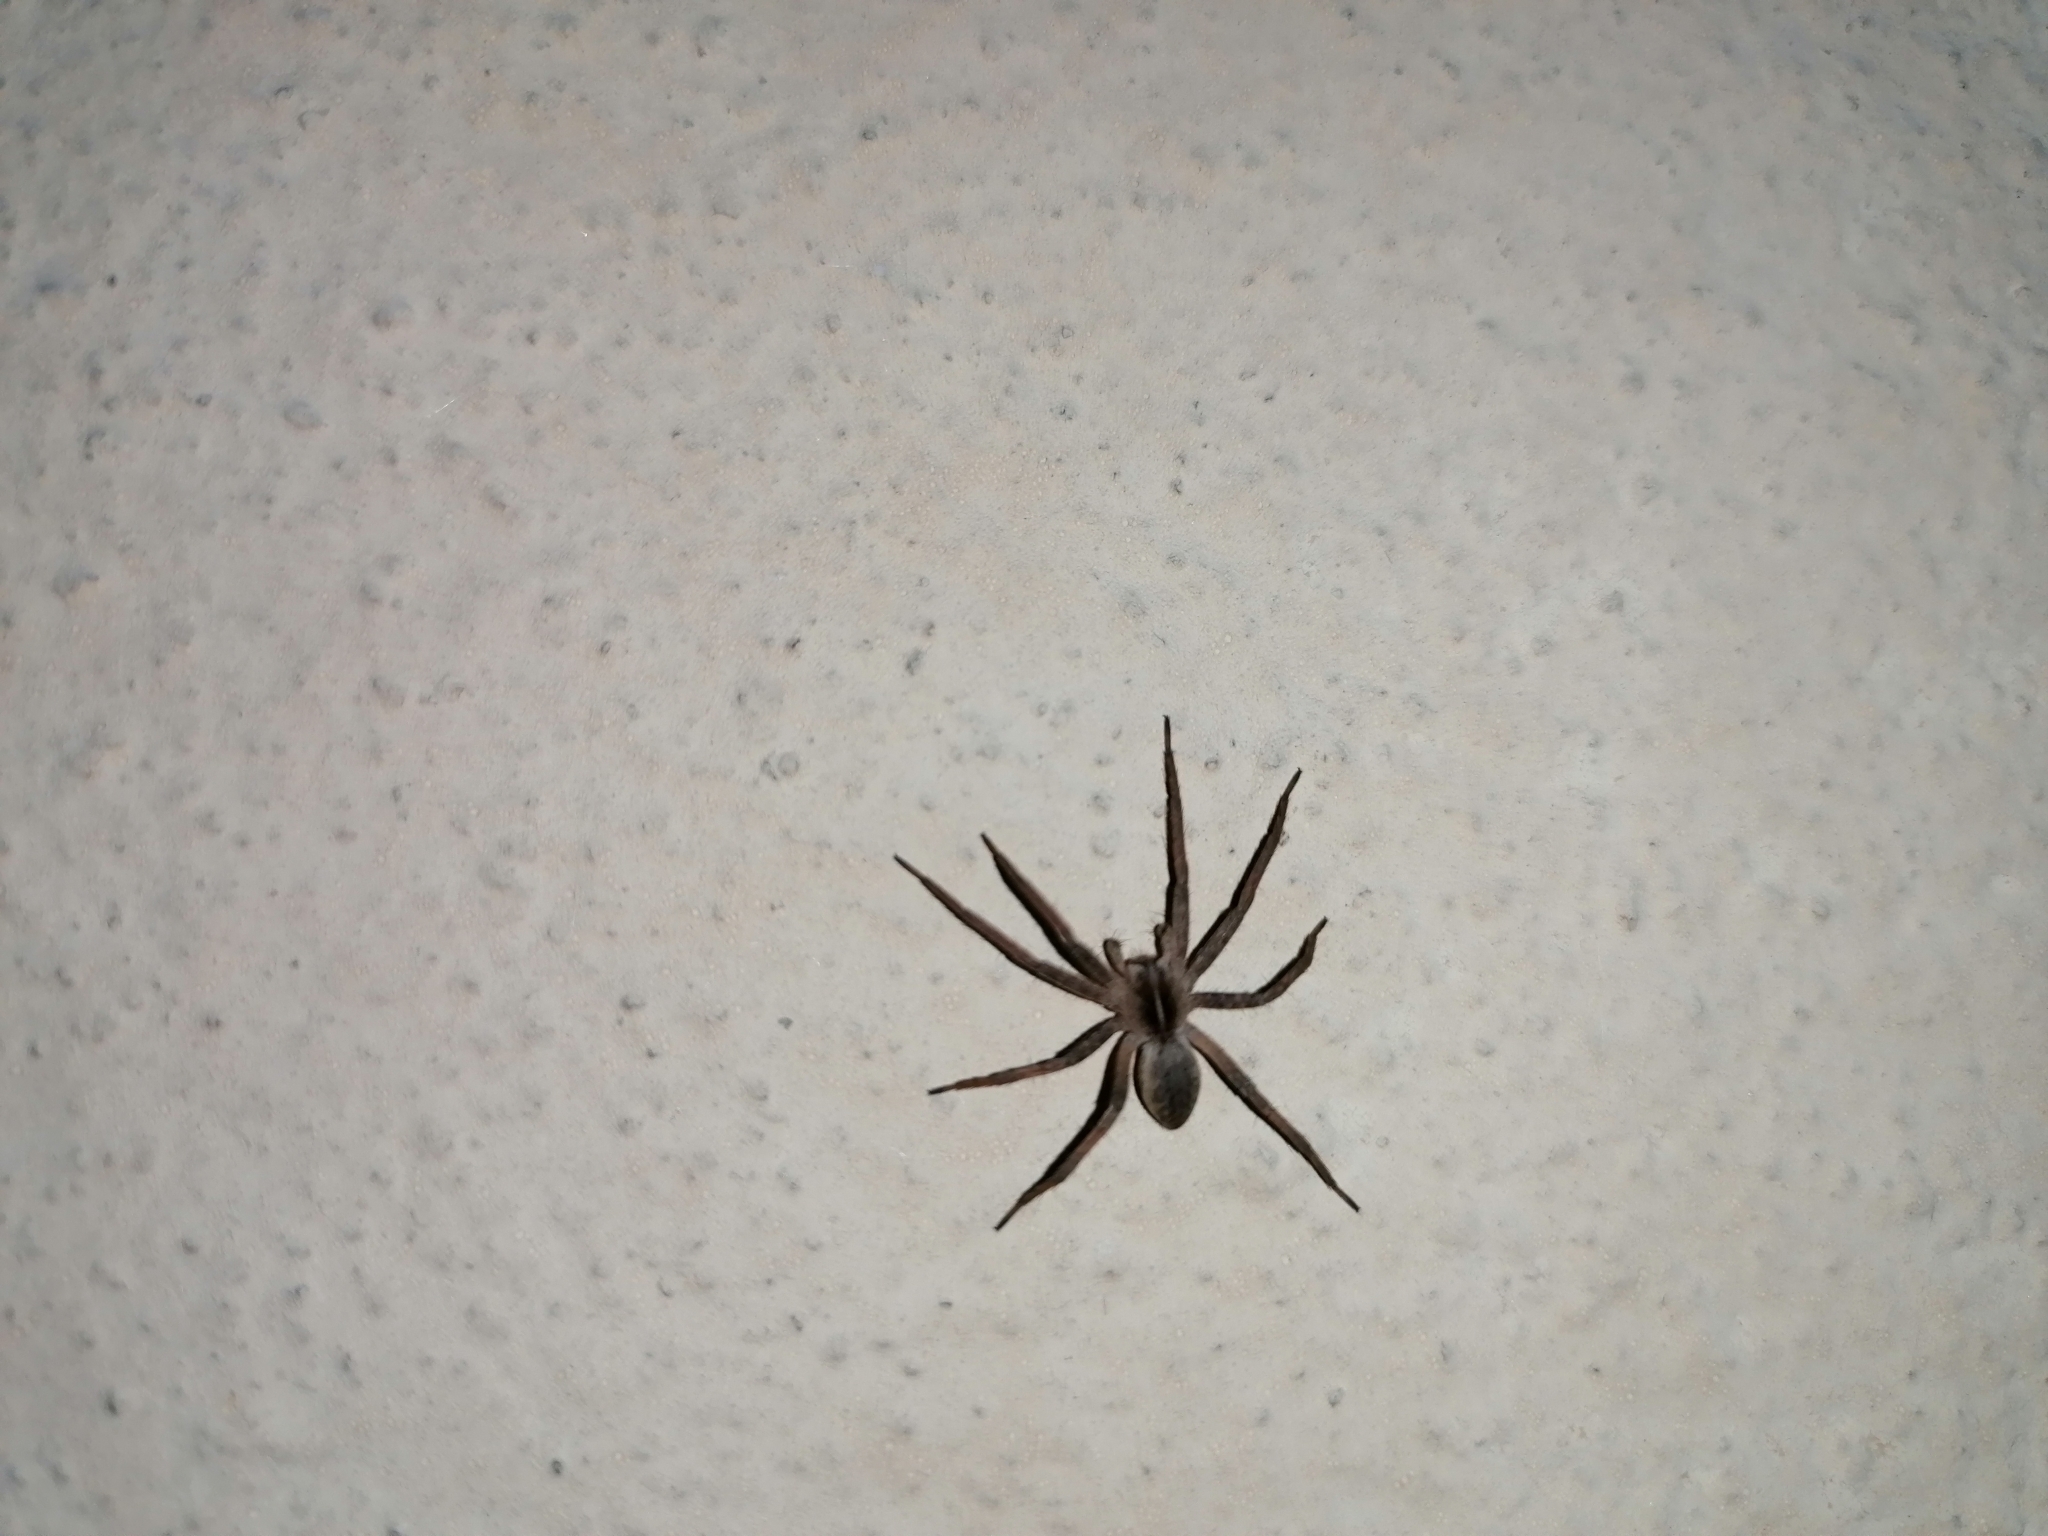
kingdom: Animalia
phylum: Arthropoda
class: Arachnida
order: Araneae
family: Pisauridae
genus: Pisaura
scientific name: Pisaura mirabilis
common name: Tent spider
